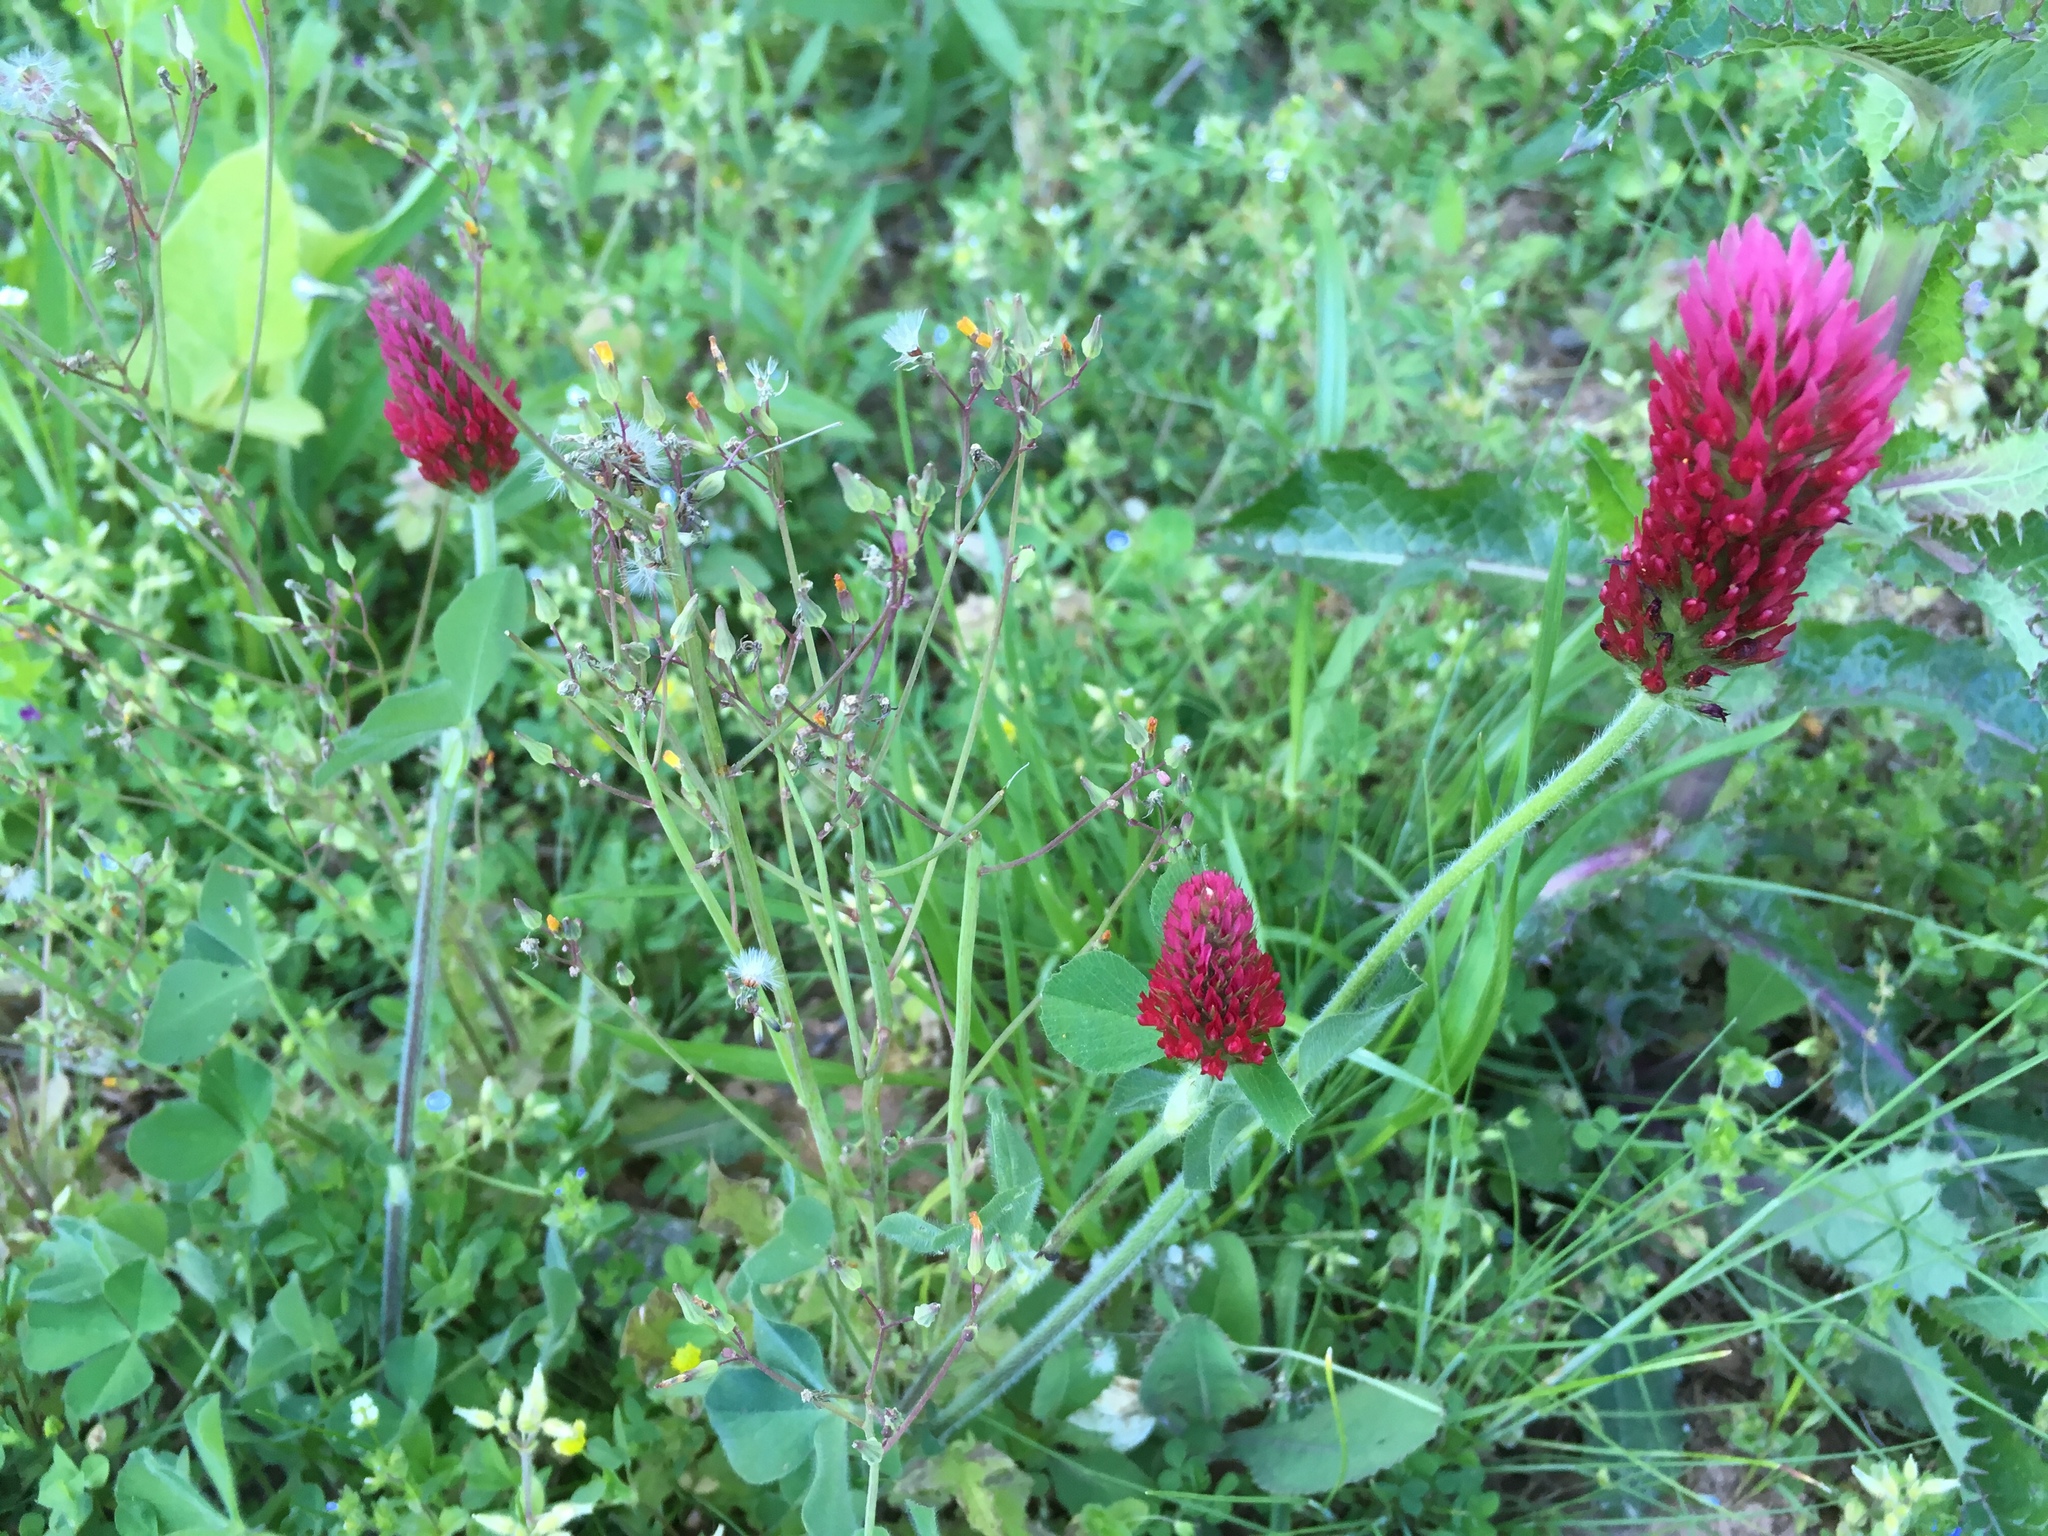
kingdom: Plantae
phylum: Tracheophyta
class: Magnoliopsida
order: Fabales
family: Fabaceae
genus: Trifolium
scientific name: Trifolium incarnatum
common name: Crimson clover
